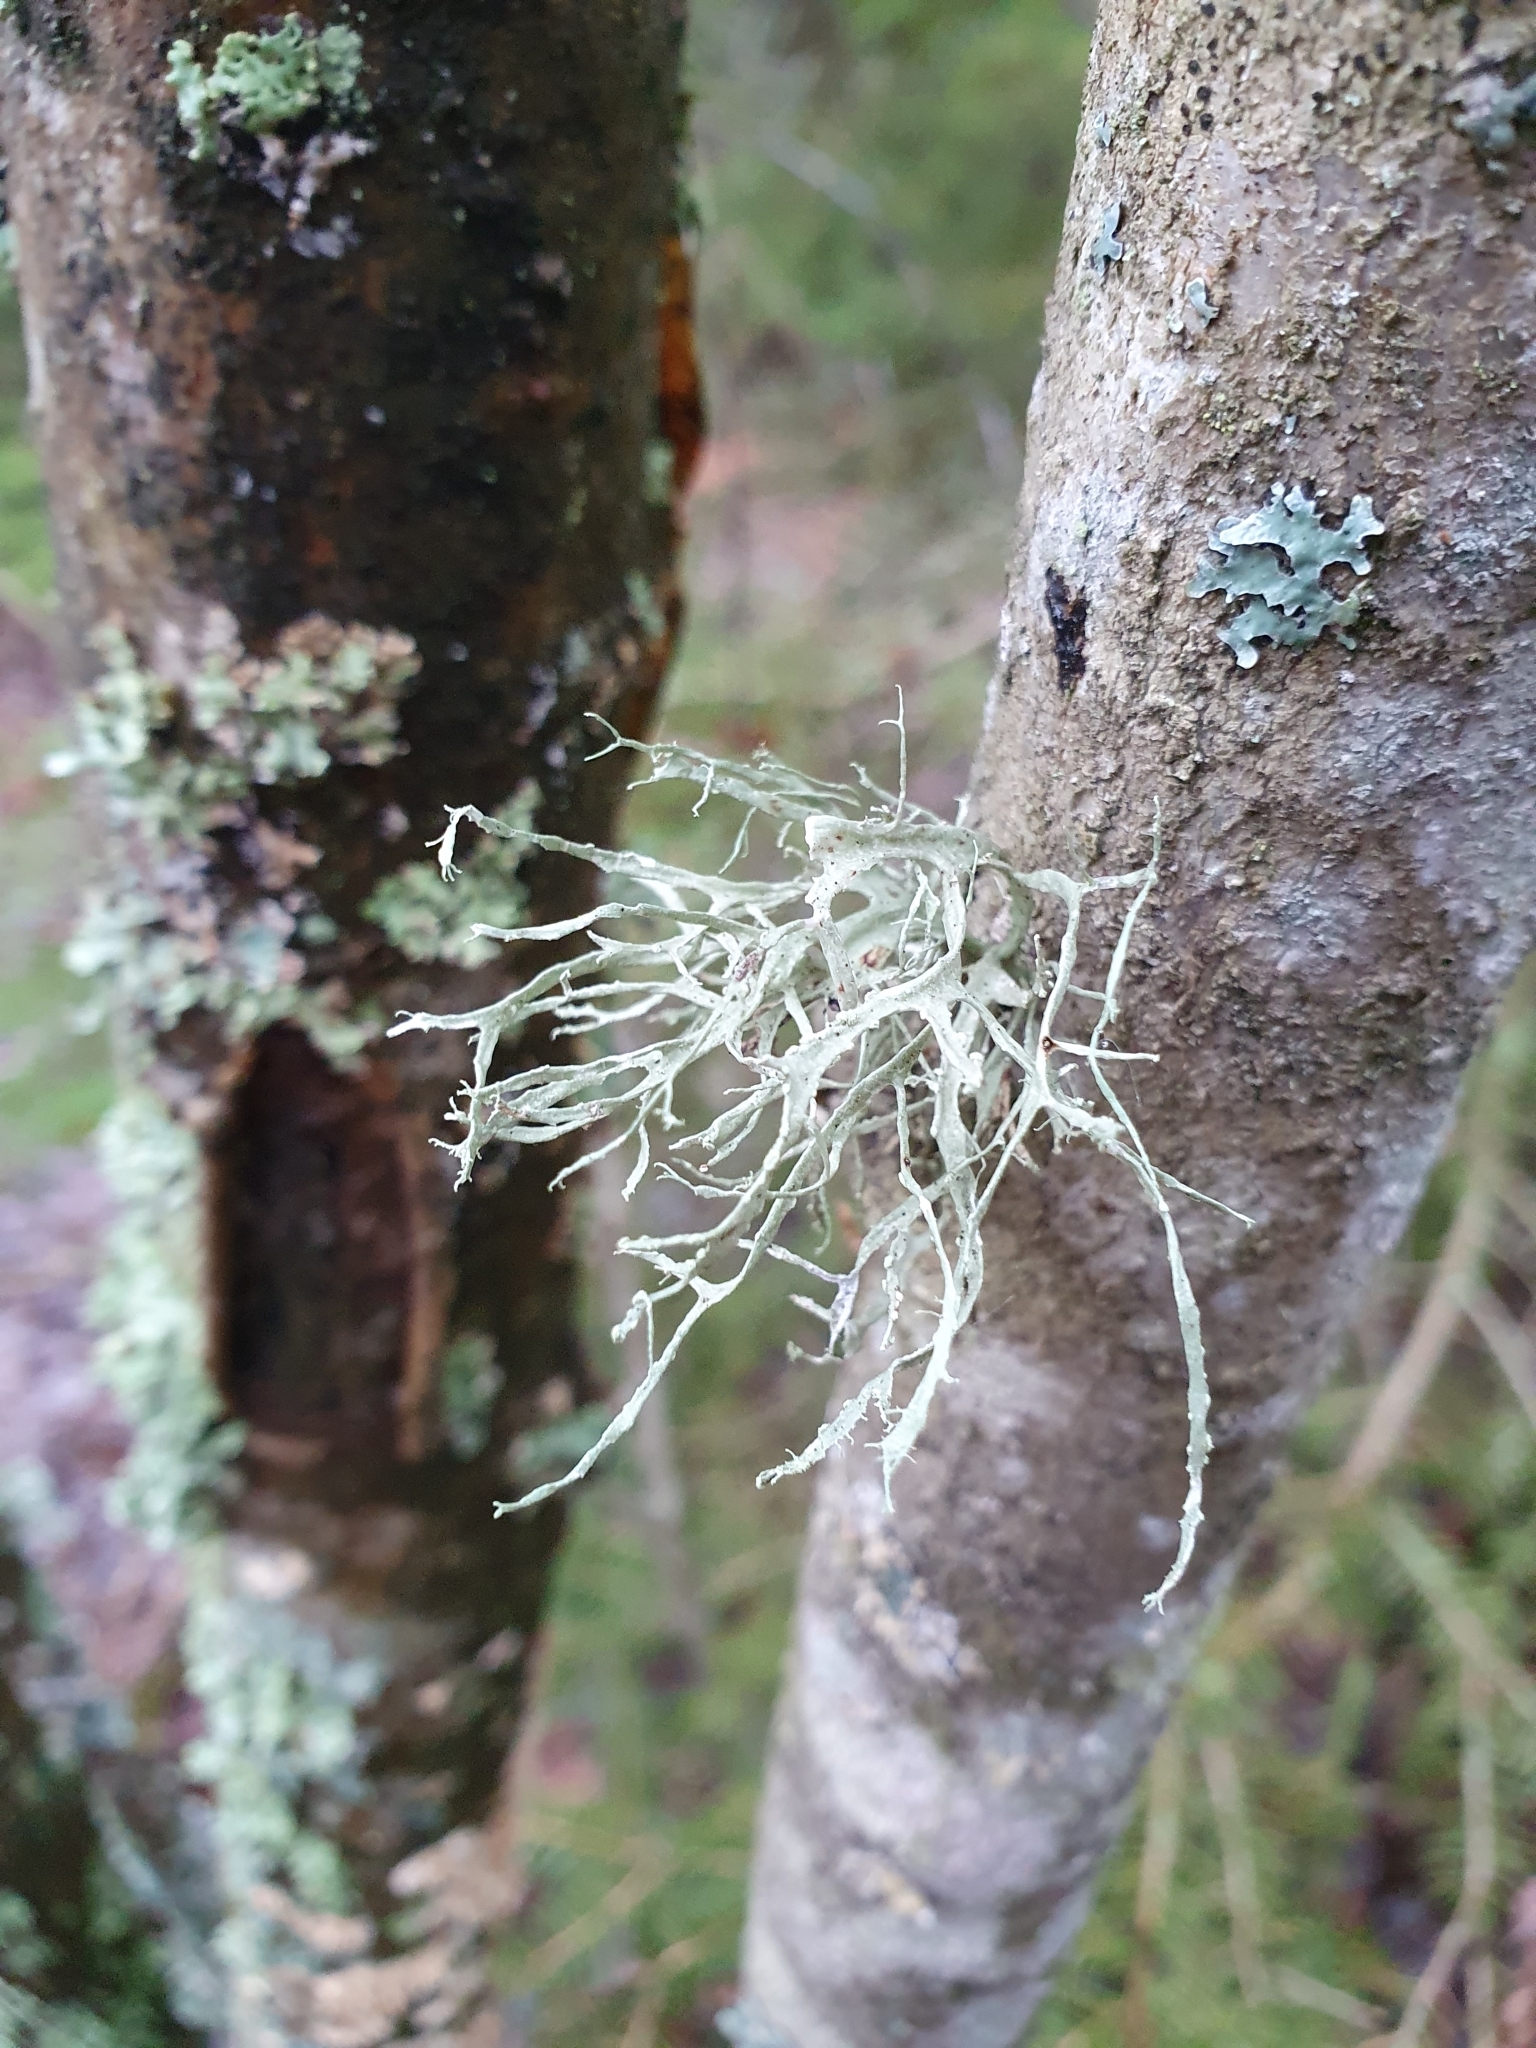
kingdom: Fungi
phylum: Ascomycota
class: Lecanoromycetes
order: Lecanorales
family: Ramalinaceae
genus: Ramalina
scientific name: Ramalina farinacea
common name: Farinose cartilage lichen
